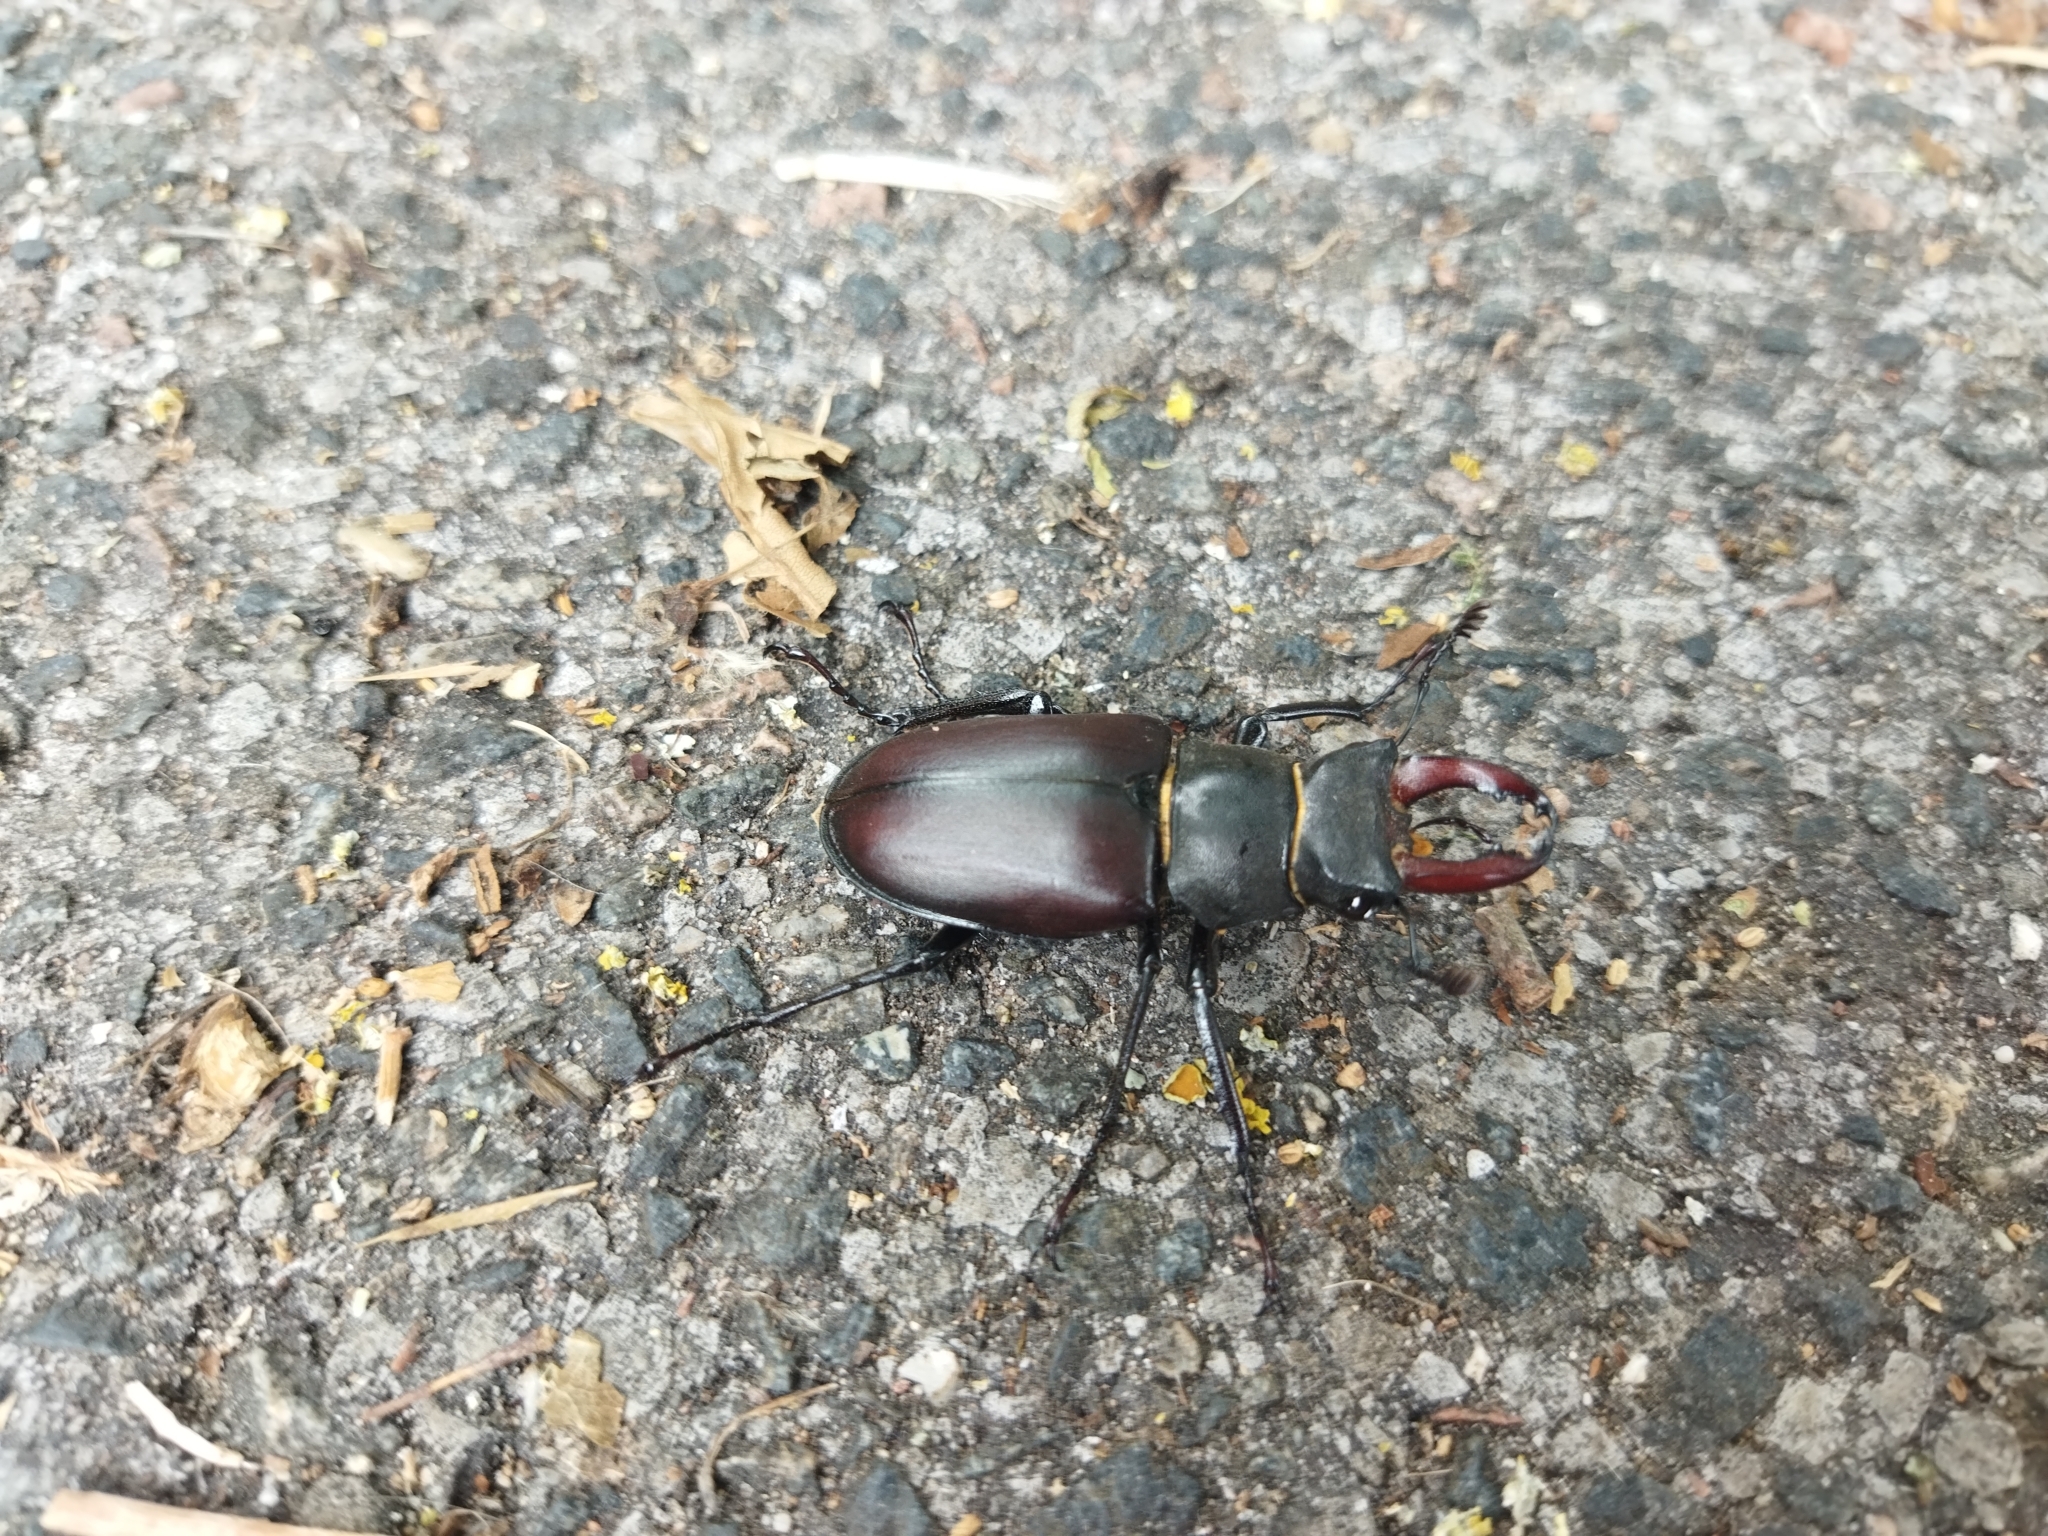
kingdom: Animalia
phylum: Arthropoda
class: Insecta
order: Coleoptera
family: Lucanidae
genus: Lucanus
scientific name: Lucanus cervus
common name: Stag beetle
